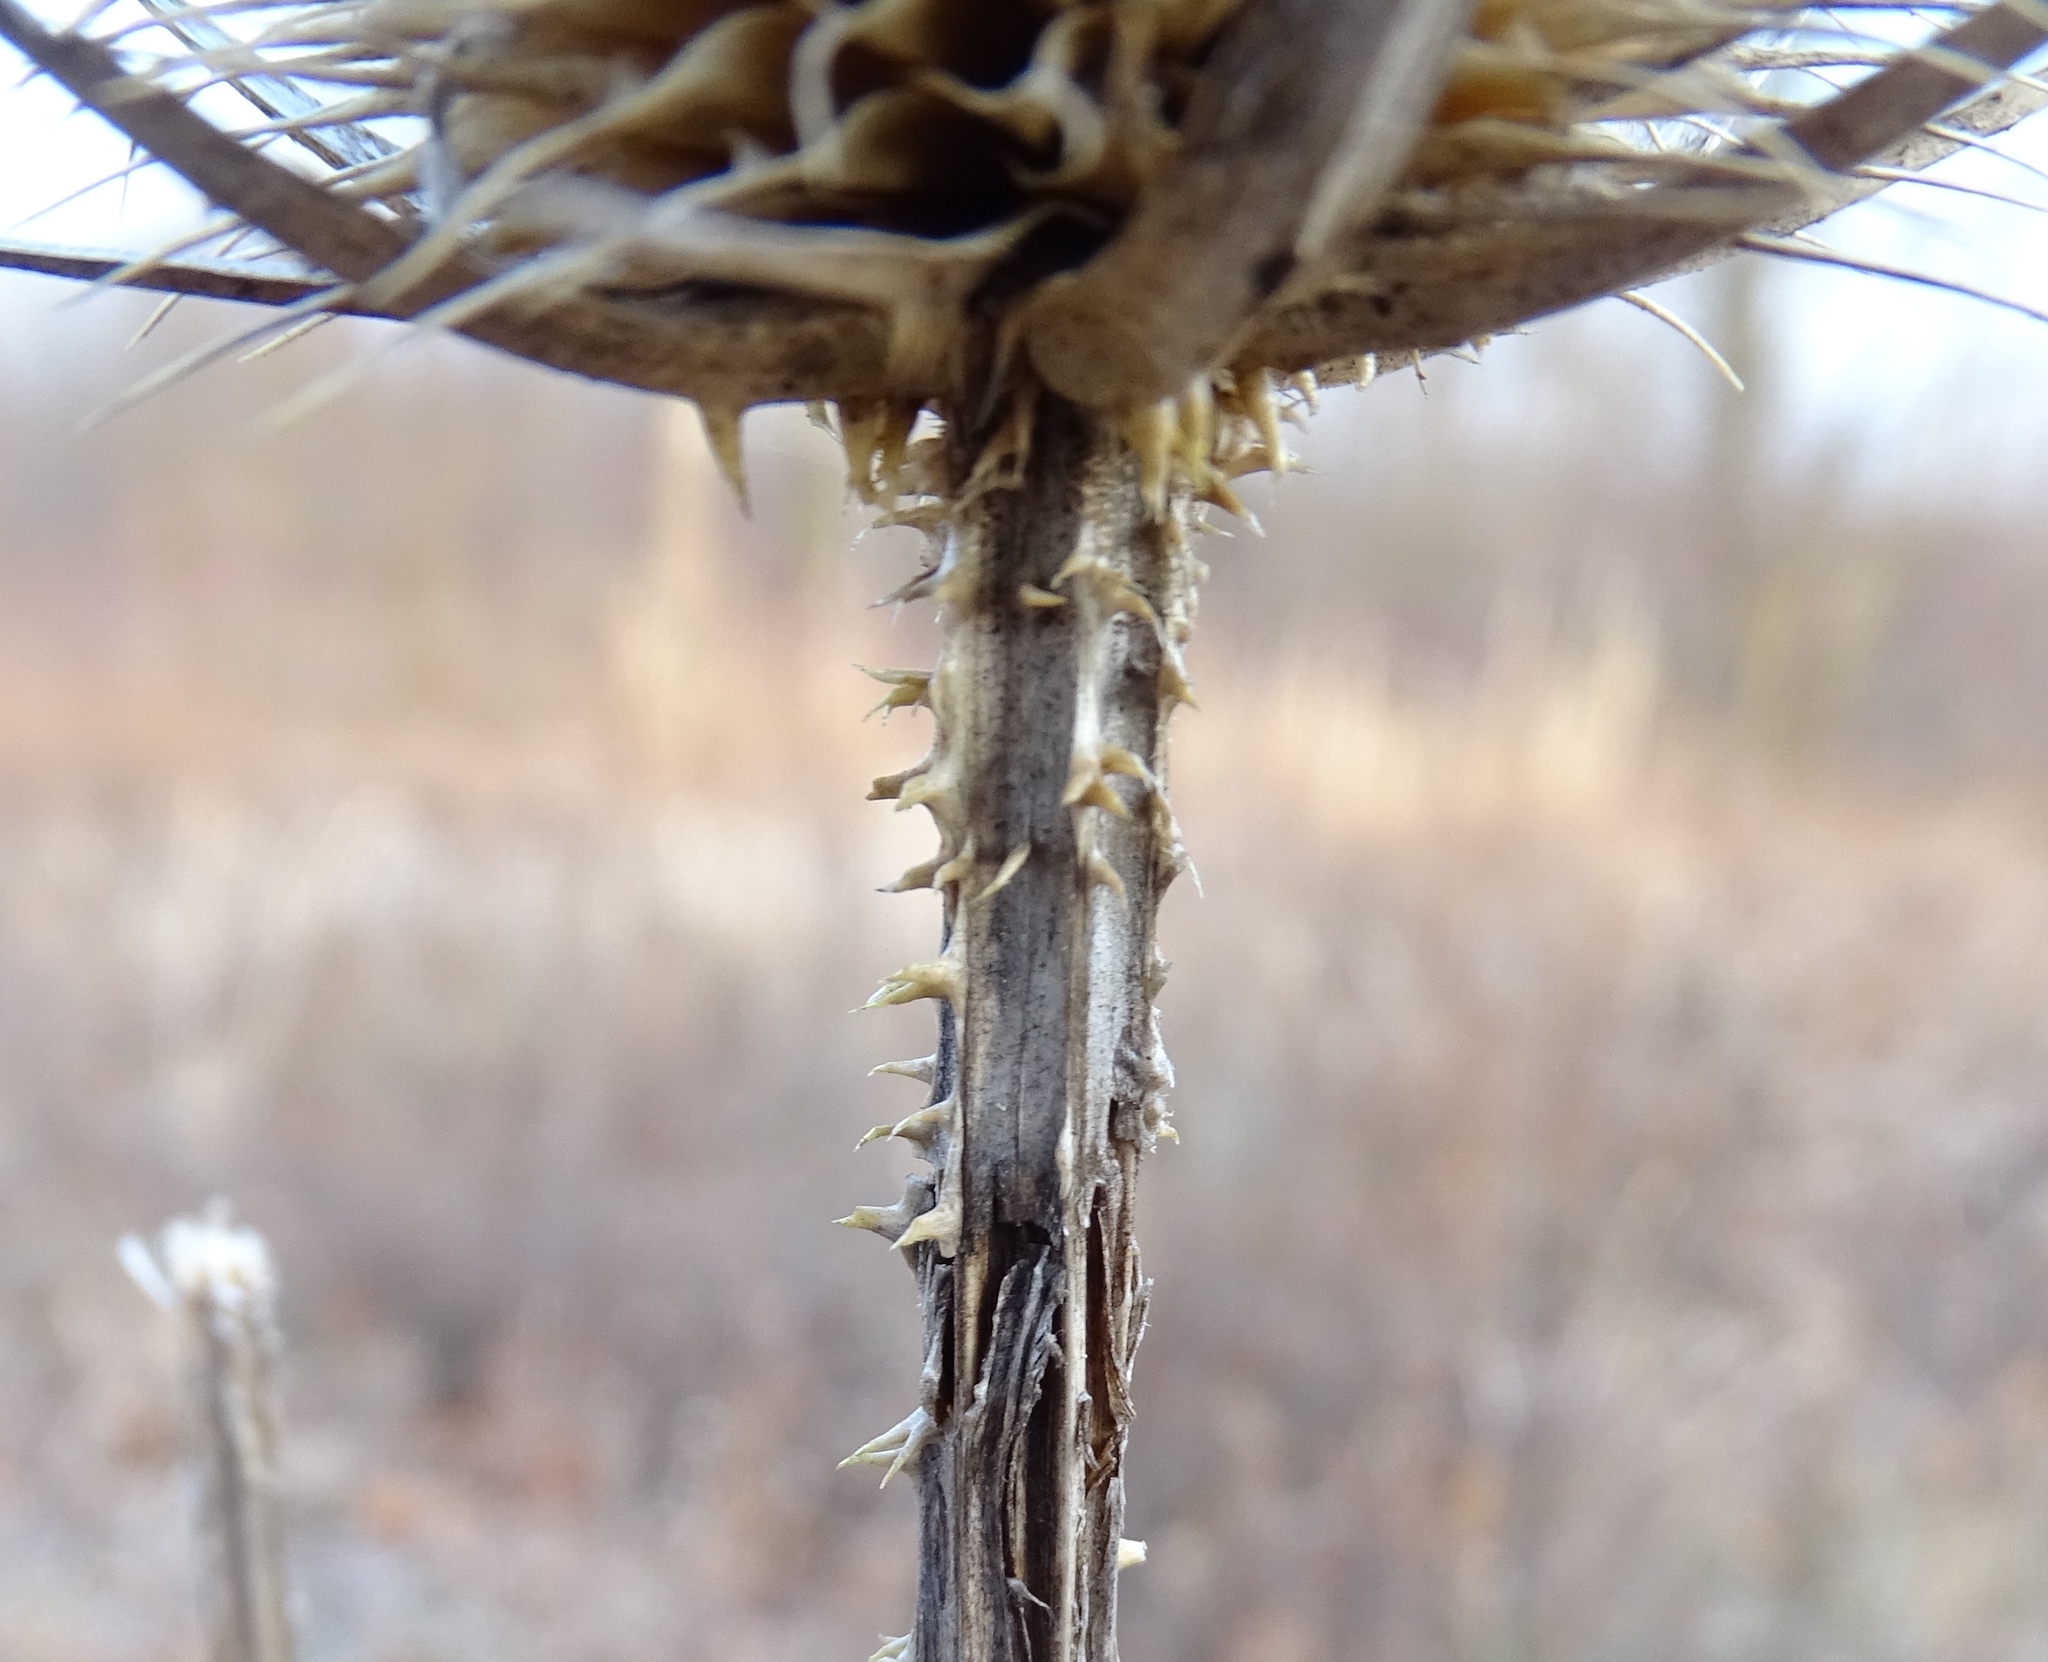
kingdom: Plantae
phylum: Tracheophyta
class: Magnoliopsida
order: Dipsacales
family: Caprifoliaceae
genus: Dipsacus
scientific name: Dipsacus laciniatus
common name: Cut-leaved teasel
